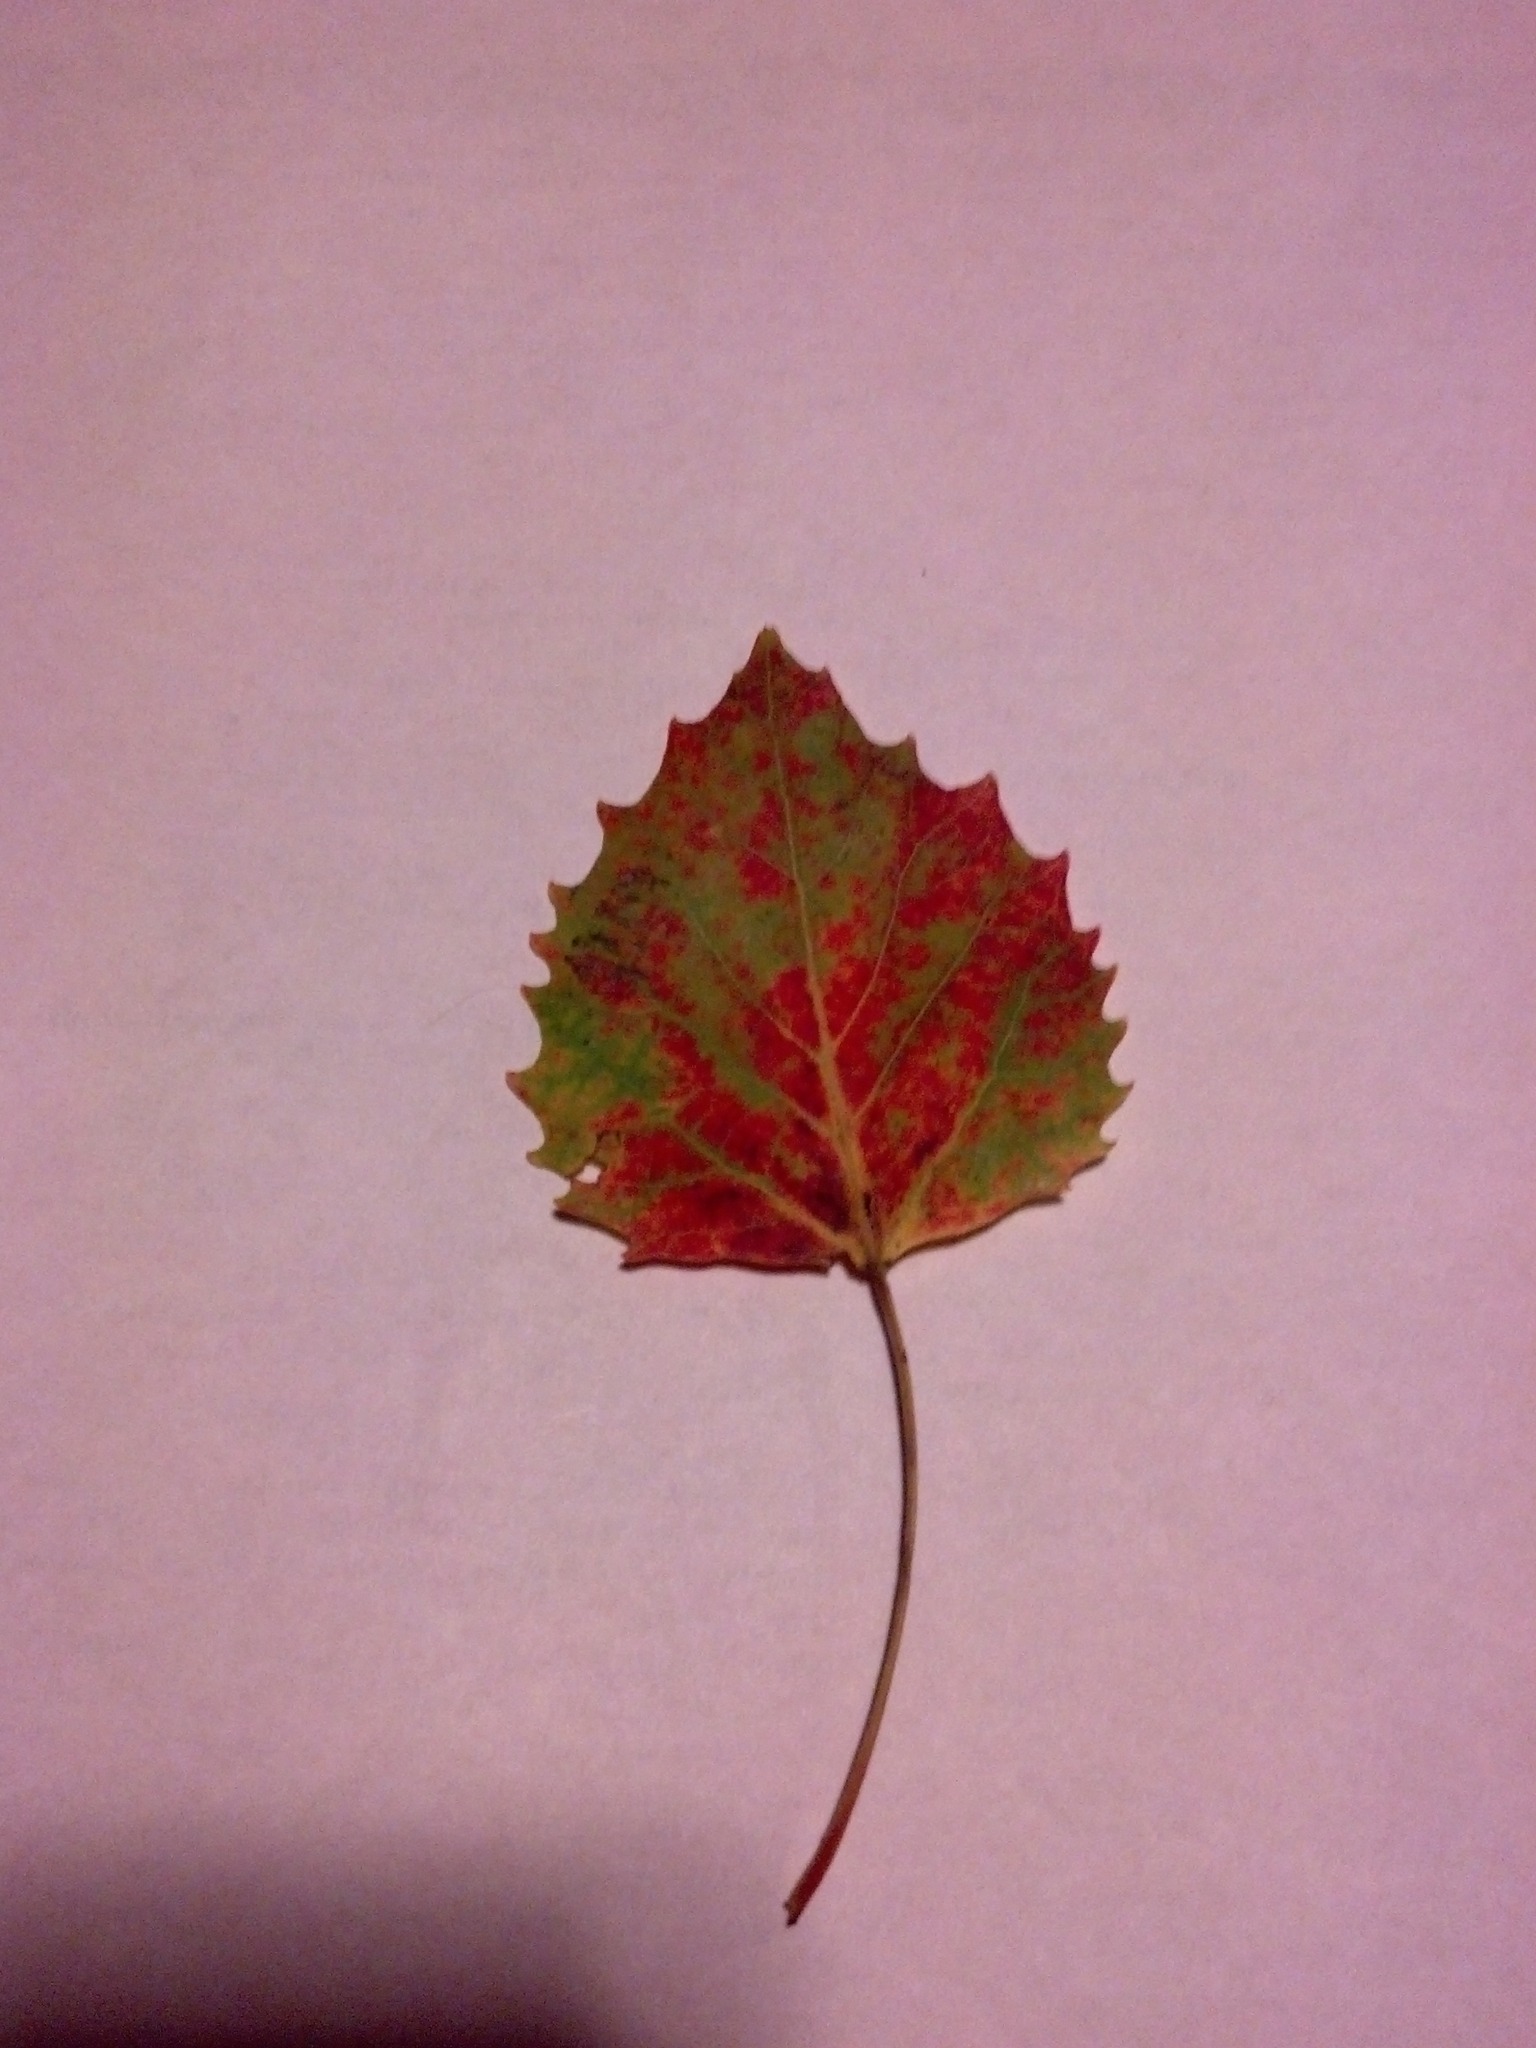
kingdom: Plantae
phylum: Tracheophyta
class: Magnoliopsida
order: Malpighiales
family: Salicaceae
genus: Populus
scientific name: Populus grandidentata
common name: Bigtooth aspen
